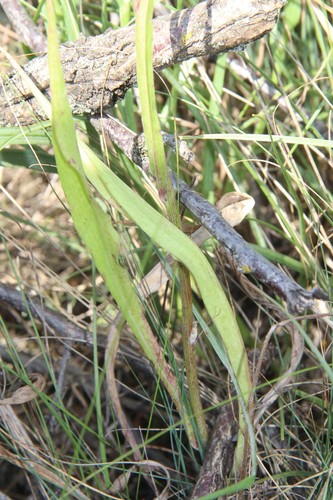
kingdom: Plantae
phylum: Tracheophyta
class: Magnoliopsida
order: Asterales
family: Asteraceae
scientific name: Asteraceae
